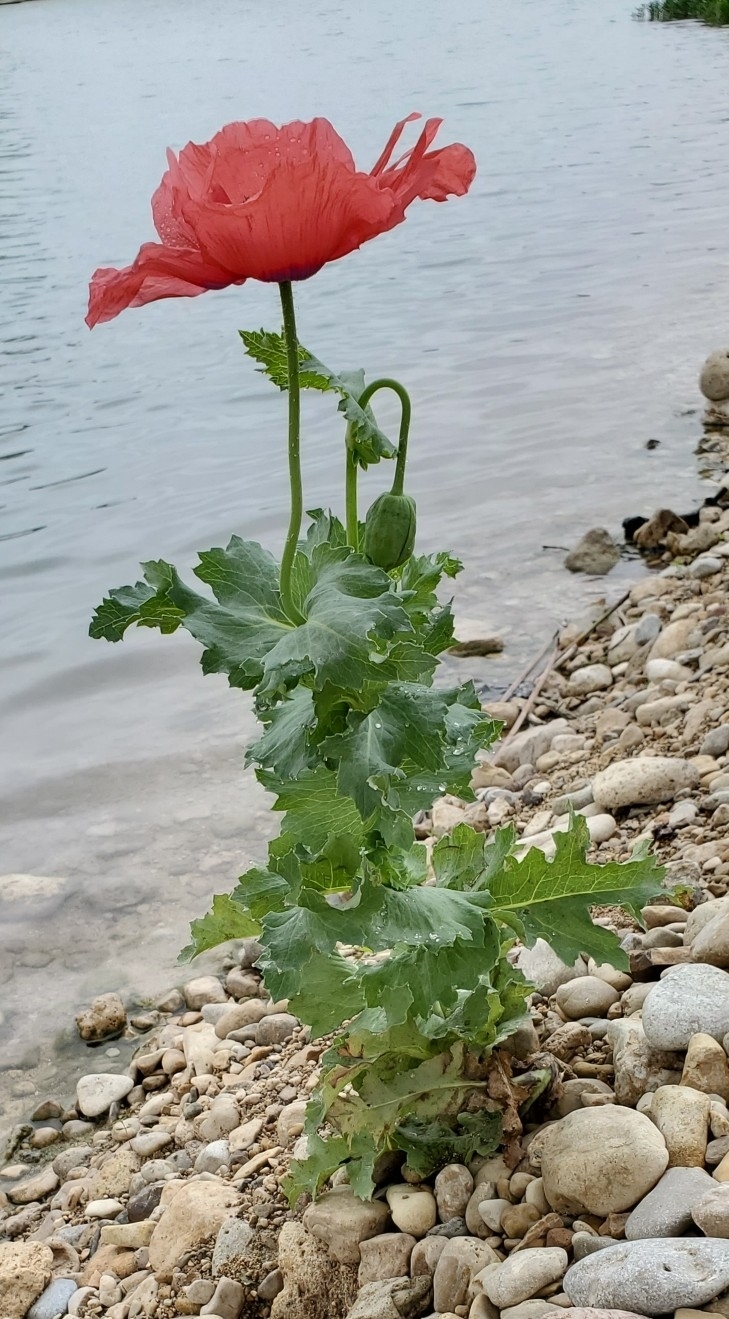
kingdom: Plantae
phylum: Tracheophyta
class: Magnoliopsida
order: Ranunculales
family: Papaveraceae
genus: Papaver
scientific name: Papaver somniferum
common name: Opium poppy
